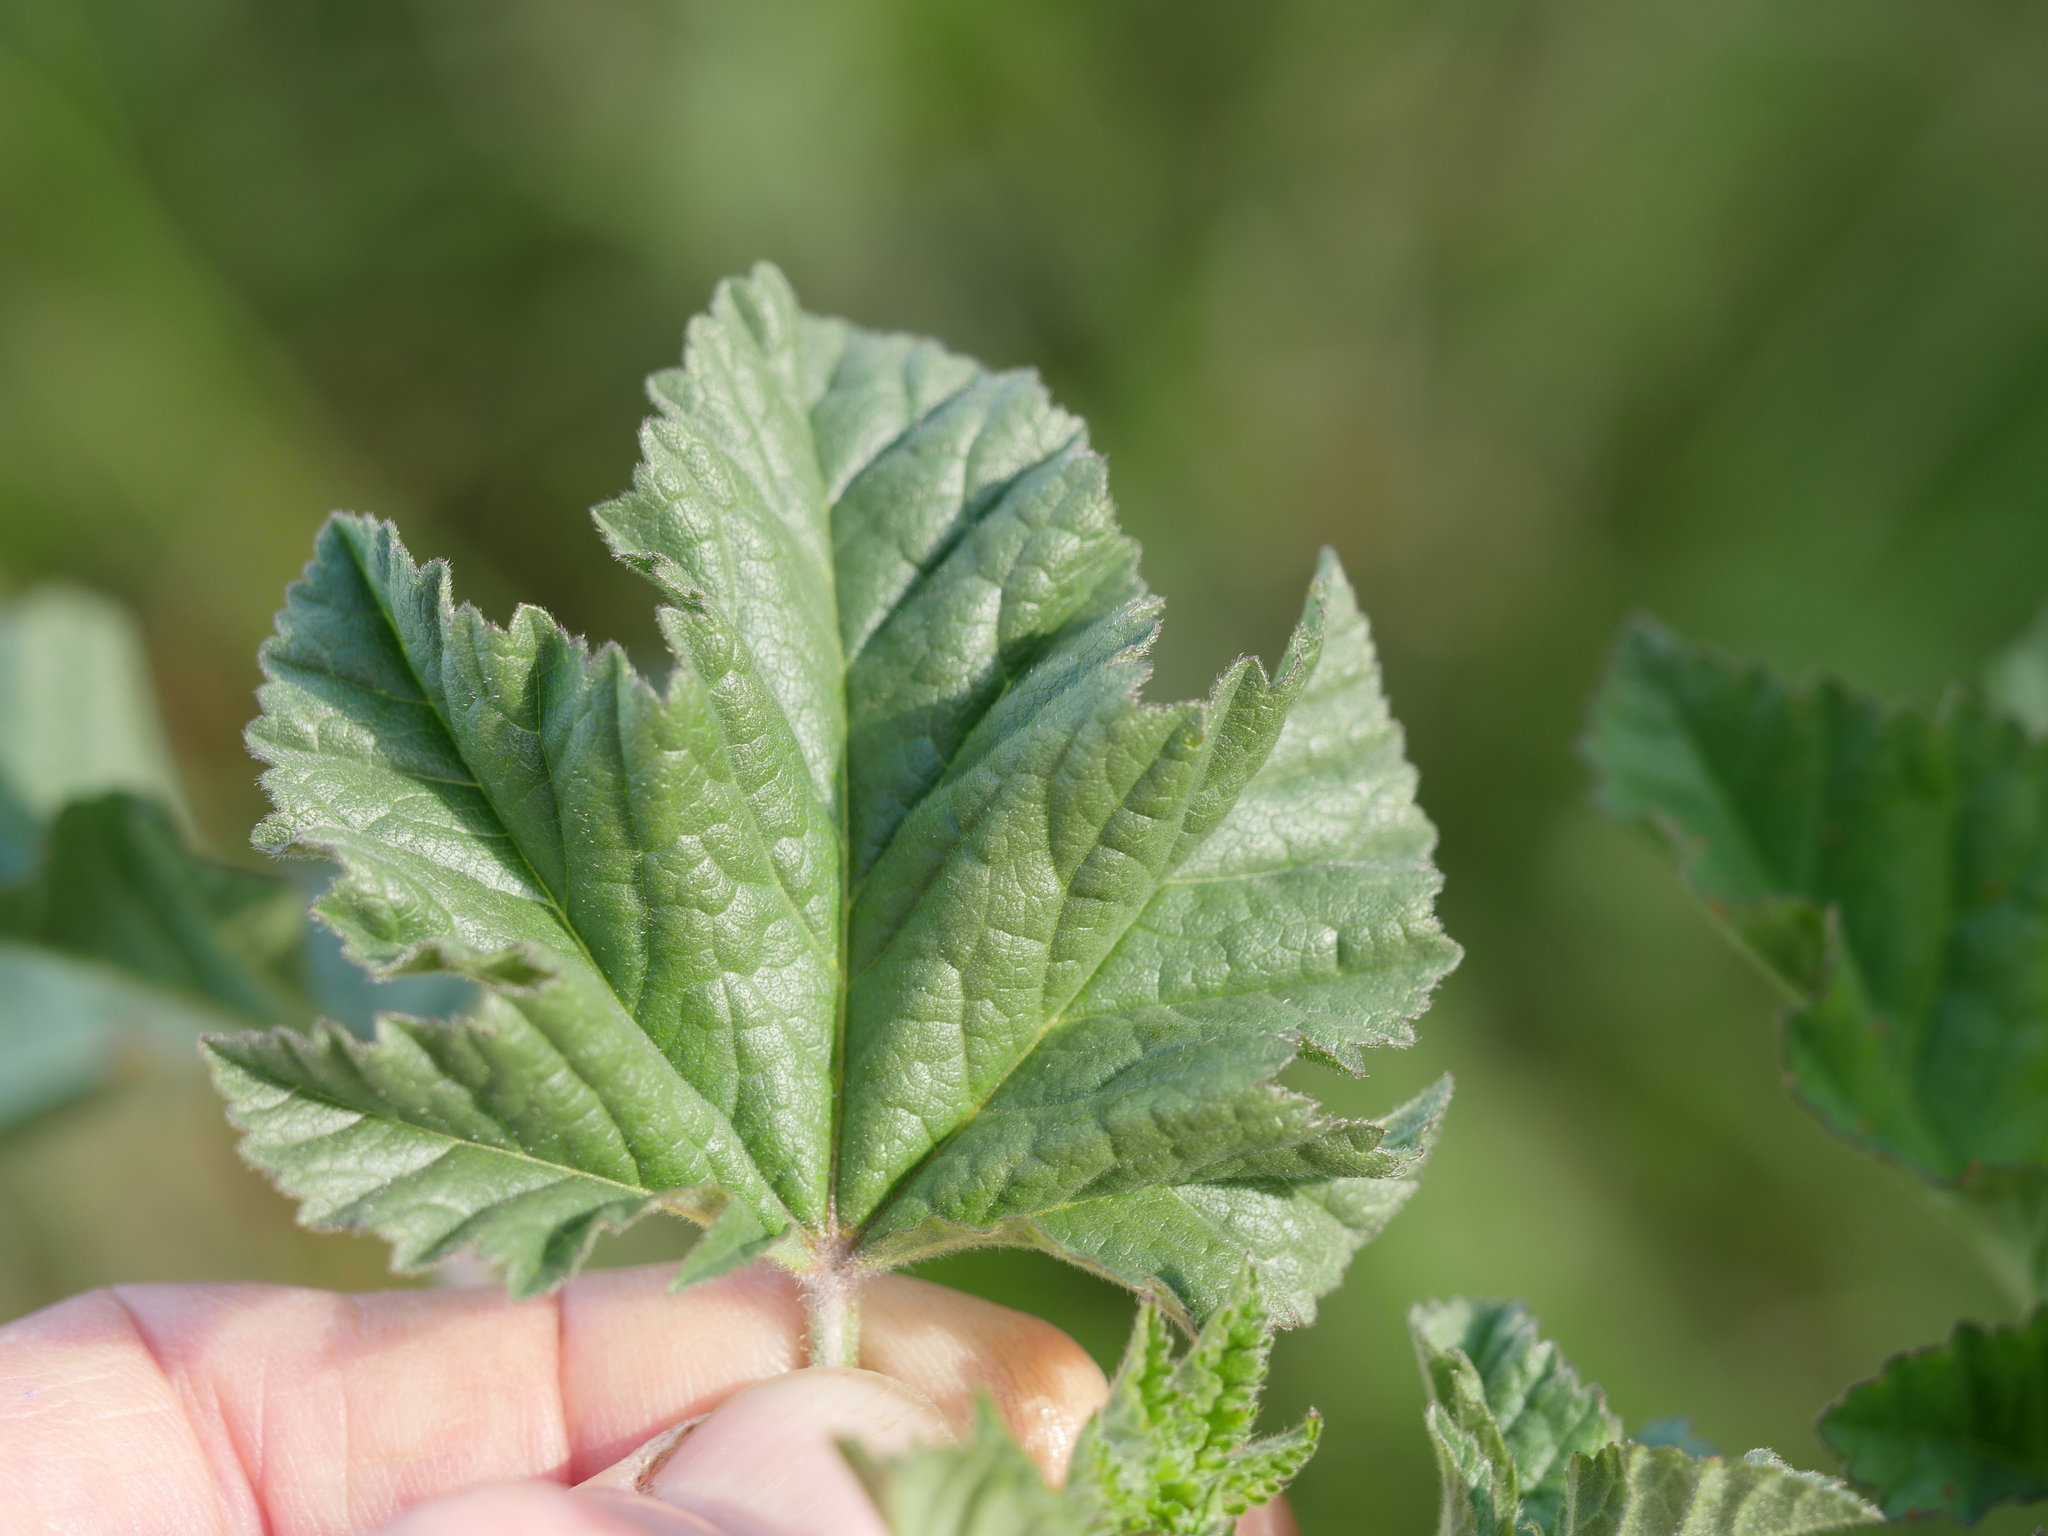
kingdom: Plantae
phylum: Tracheophyta
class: Magnoliopsida
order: Malvales
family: Malvaceae
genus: Malva
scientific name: Malva multiflora
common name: Cheeseweed
